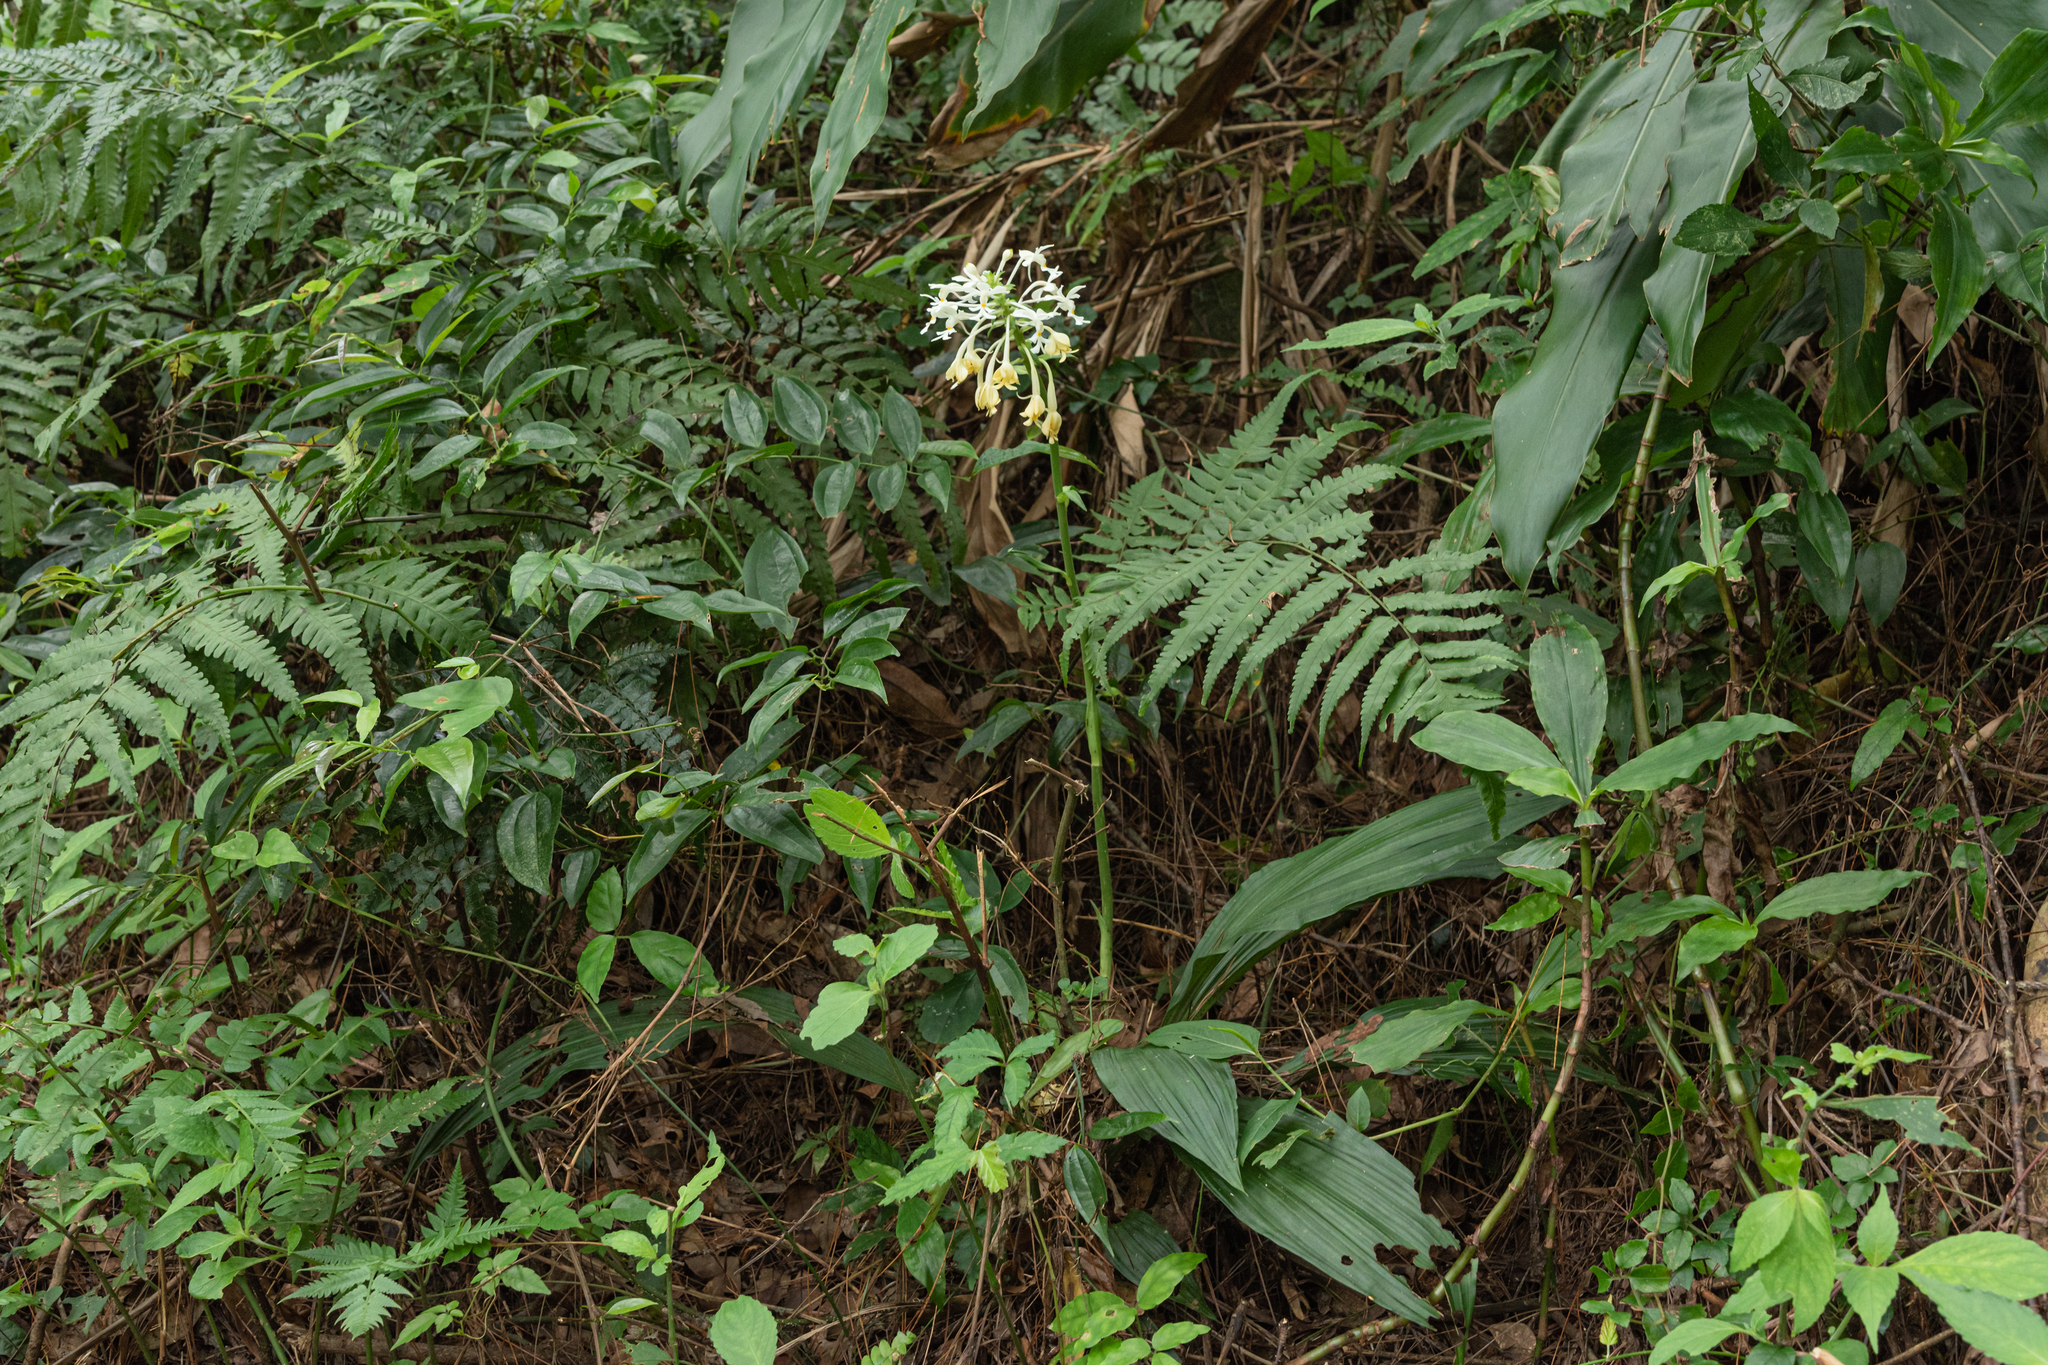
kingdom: Plantae
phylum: Tracheophyta
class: Liliopsida
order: Asparagales
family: Orchidaceae
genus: Calanthe
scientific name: Calanthe triplicata
